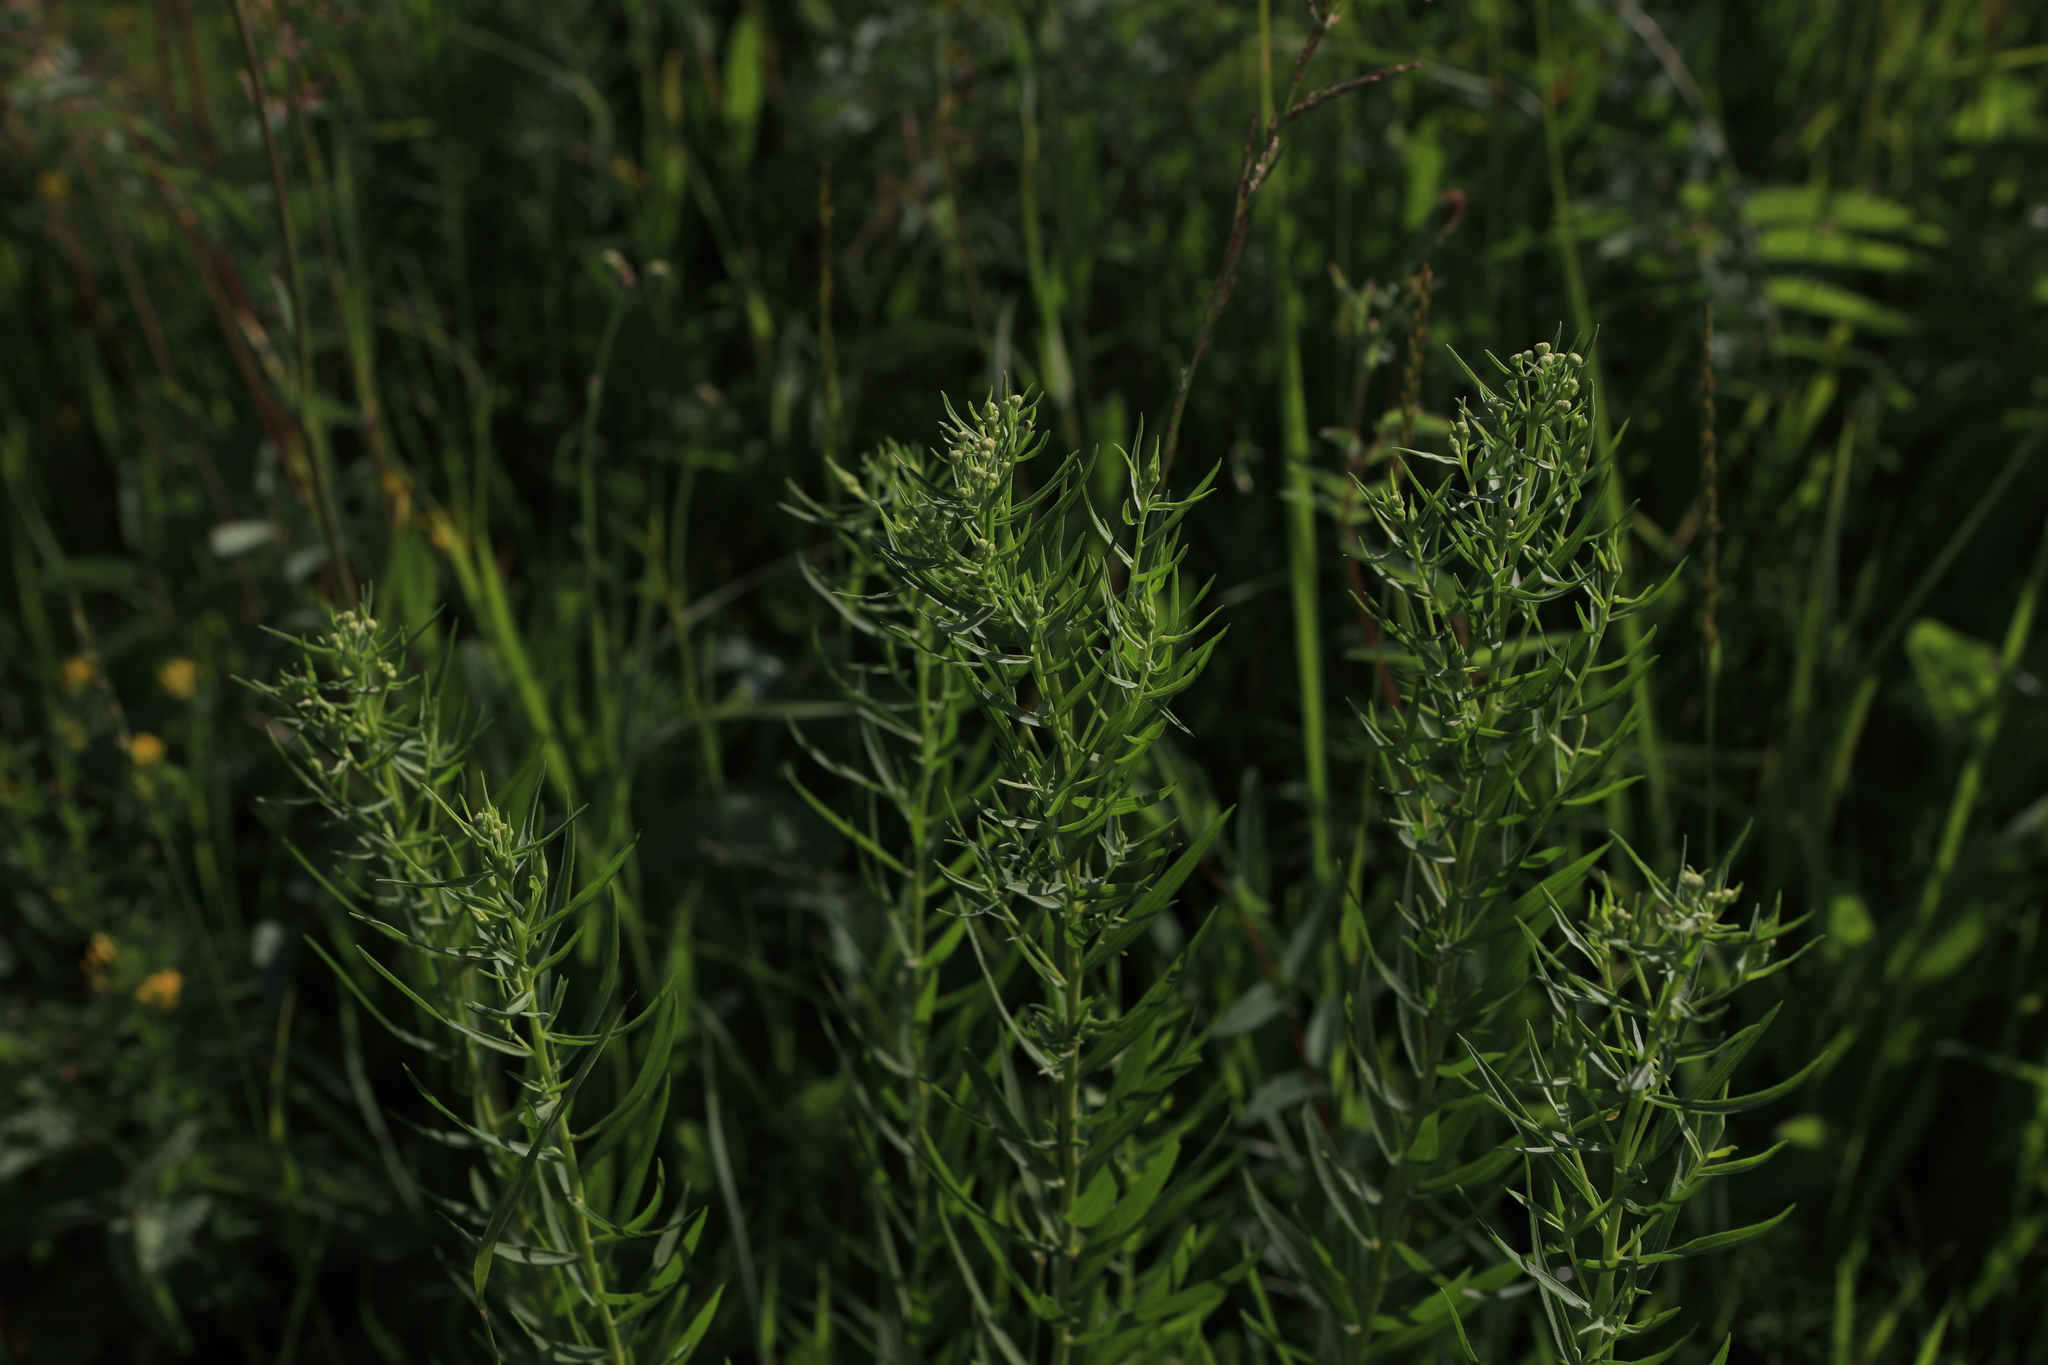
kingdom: Plantae
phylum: Tracheophyta
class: Magnoliopsida
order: Asterales
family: Asteraceae
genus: Artemisia
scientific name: Artemisia dracunculus
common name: Tarragon
